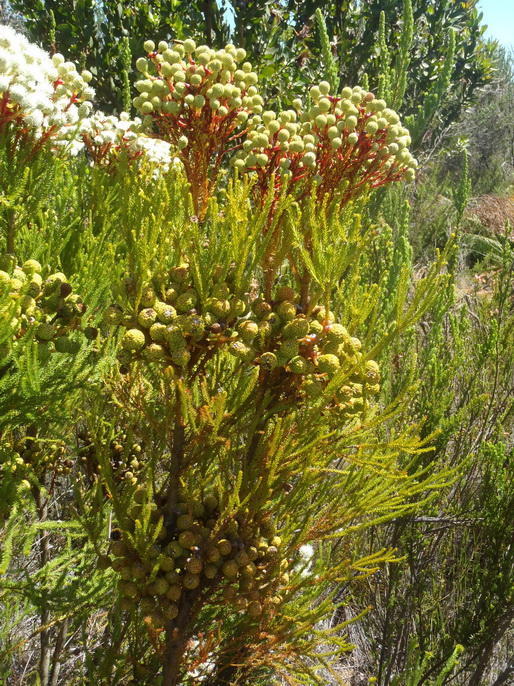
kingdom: Plantae
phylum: Tracheophyta
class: Magnoliopsida
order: Bruniales
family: Bruniaceae
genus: Berzelia
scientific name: Berzelia intermedia
